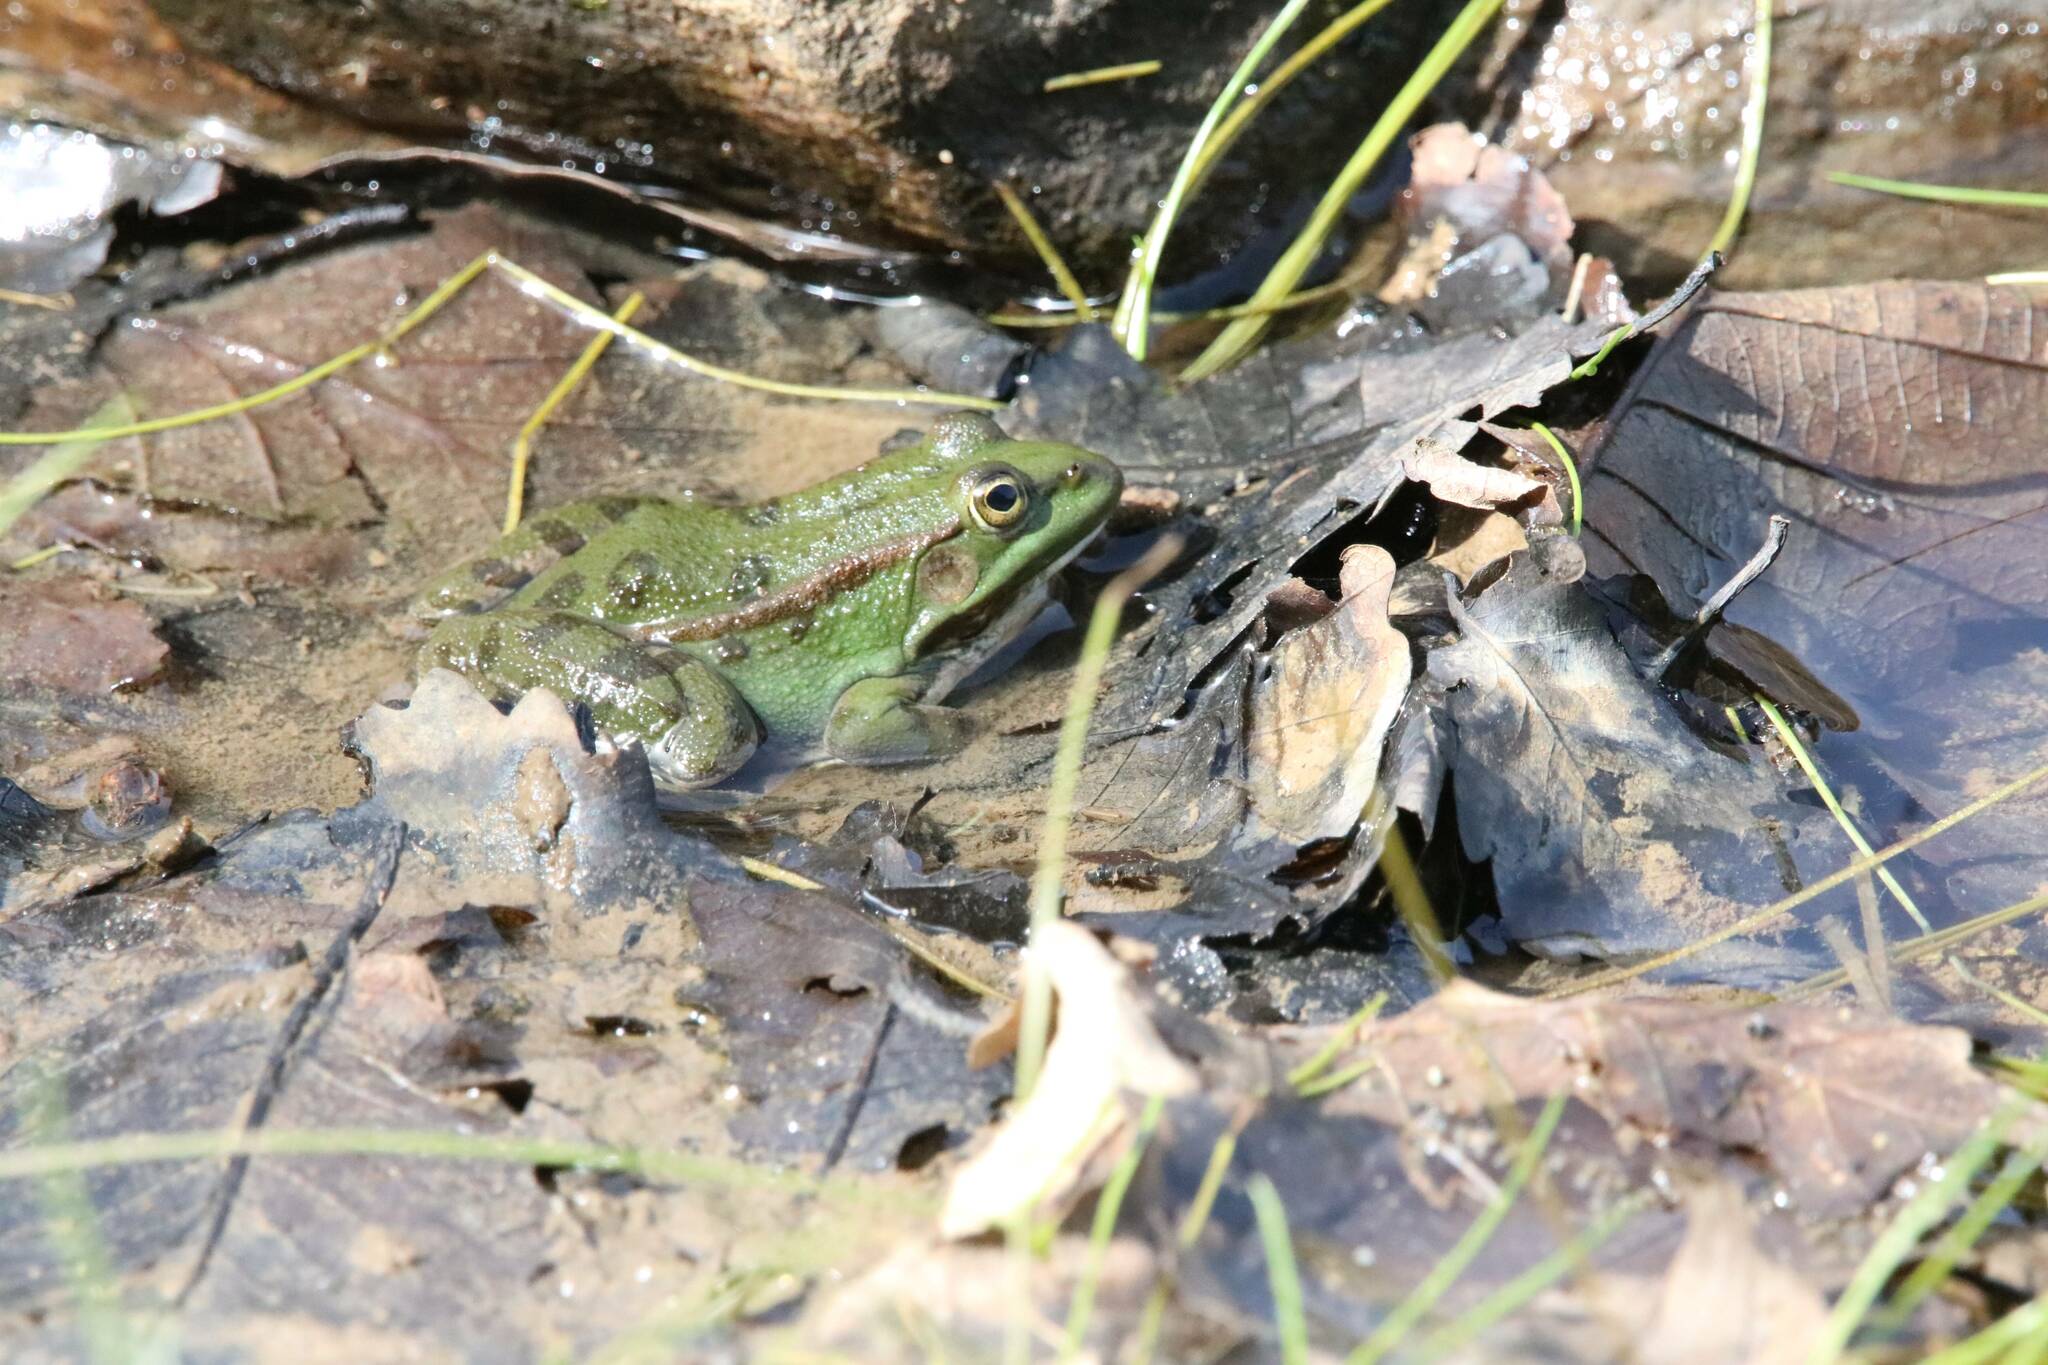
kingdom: Animalia
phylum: Chordata
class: Amphibia
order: Anura
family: Ranidae
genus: Pelophylax
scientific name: Pelophylax saharicus
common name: Sahara frog
